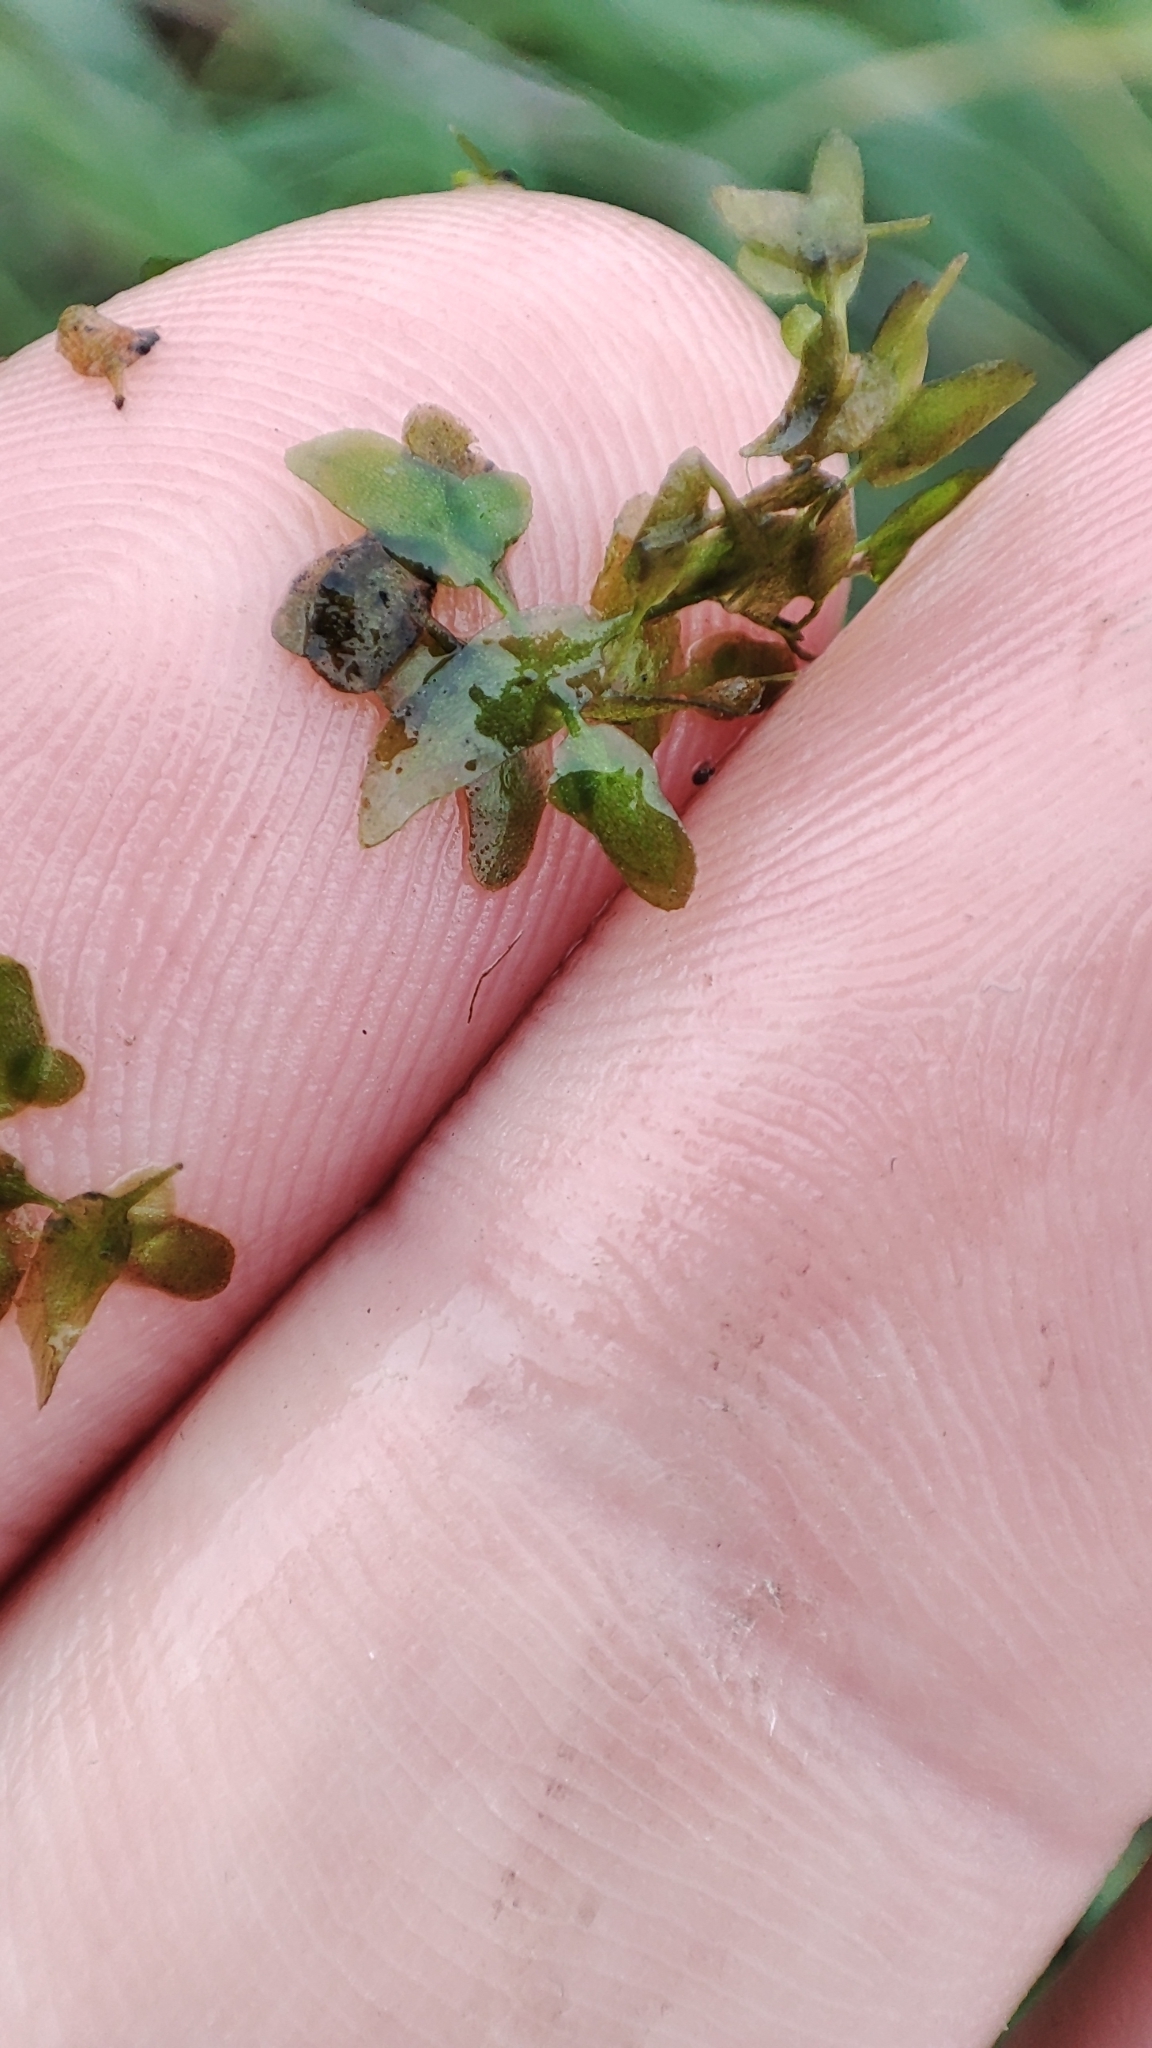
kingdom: Plantae
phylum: Tracheophyta
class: Liliopsida
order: Alismatales
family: Araceae
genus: Lemna
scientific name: Lemna trisulca
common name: Ivy-leaved duckweed
